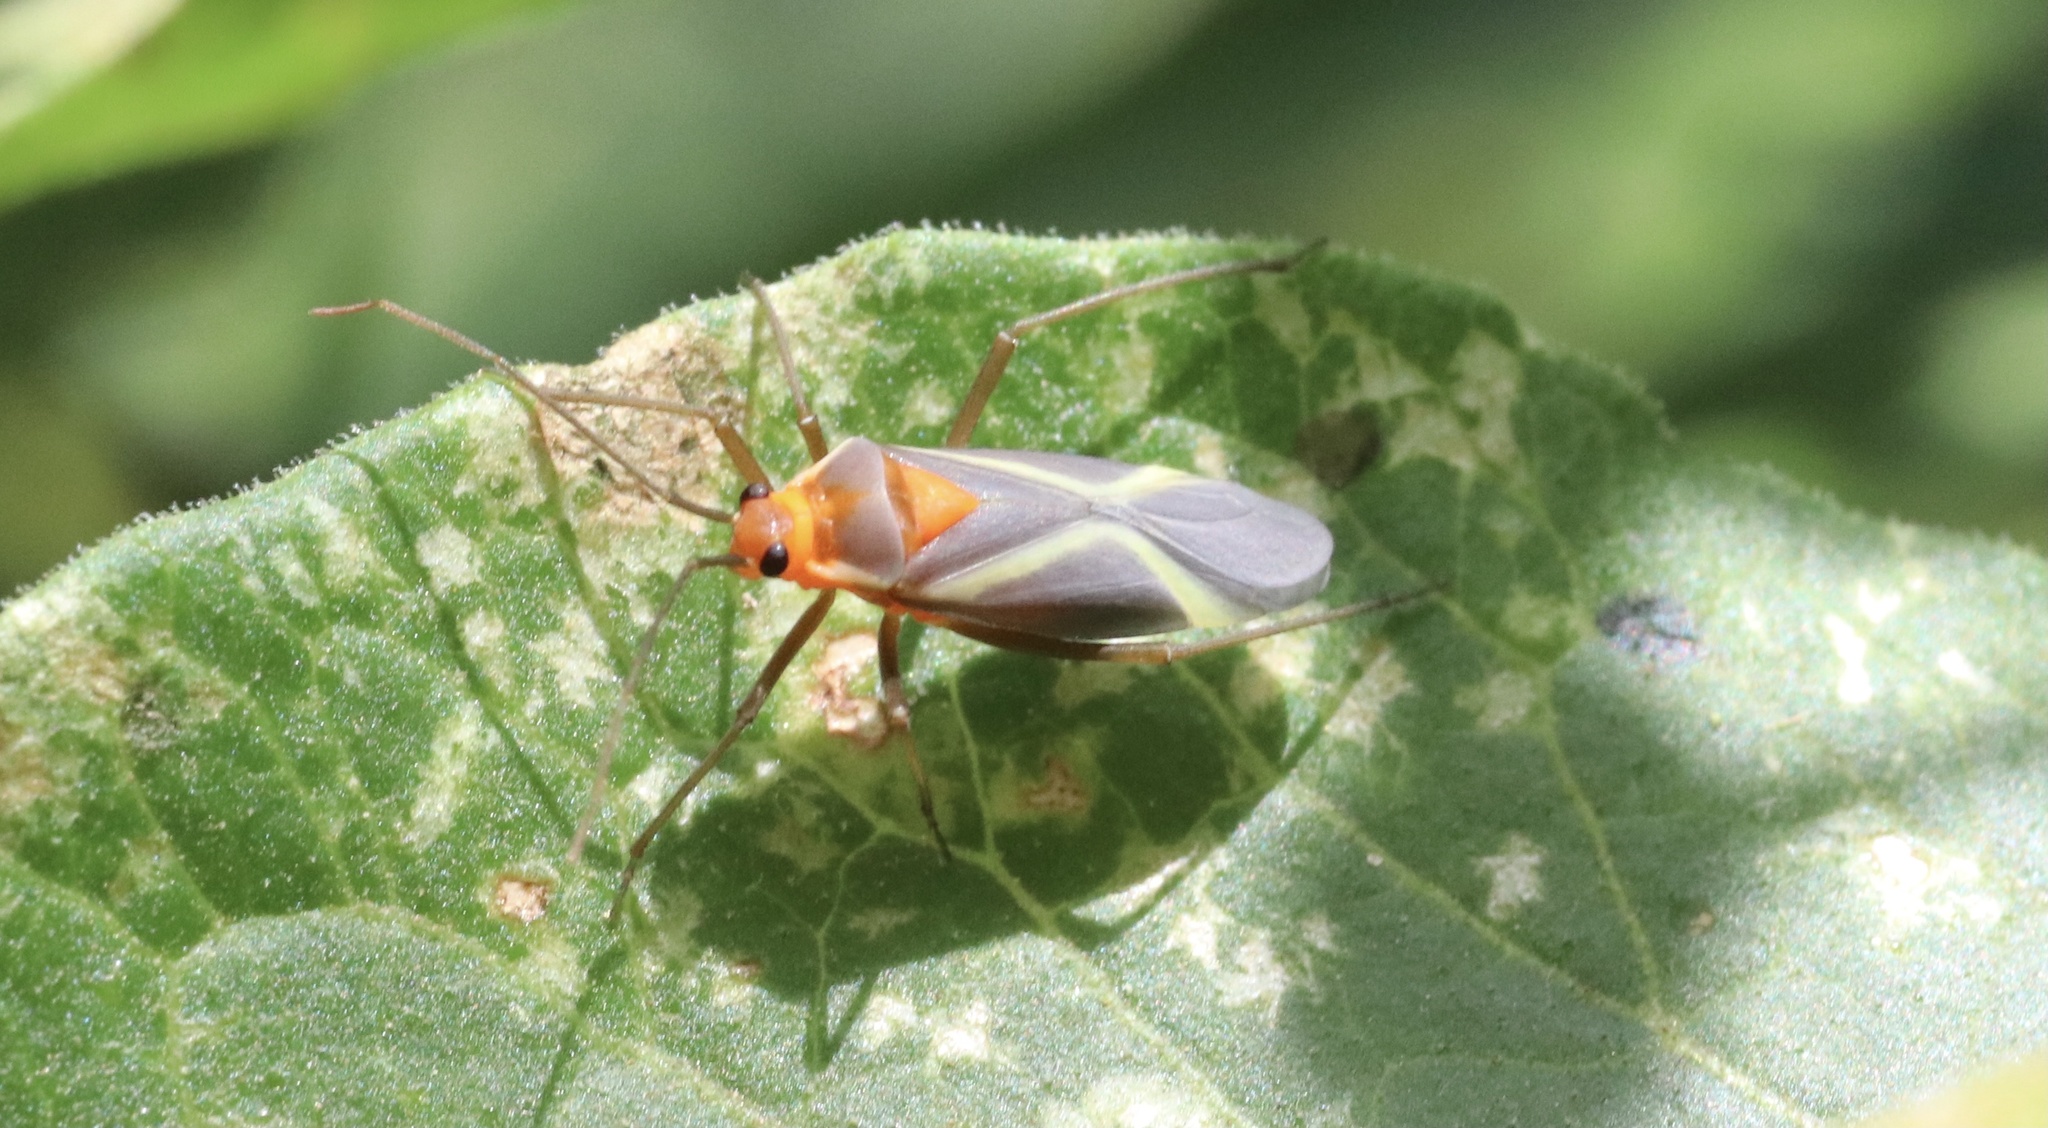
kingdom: Animalia
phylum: Arthropoda
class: Insecta
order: Hemiptera
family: Miridae
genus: Eurylomata
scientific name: Eurylomata picturata
